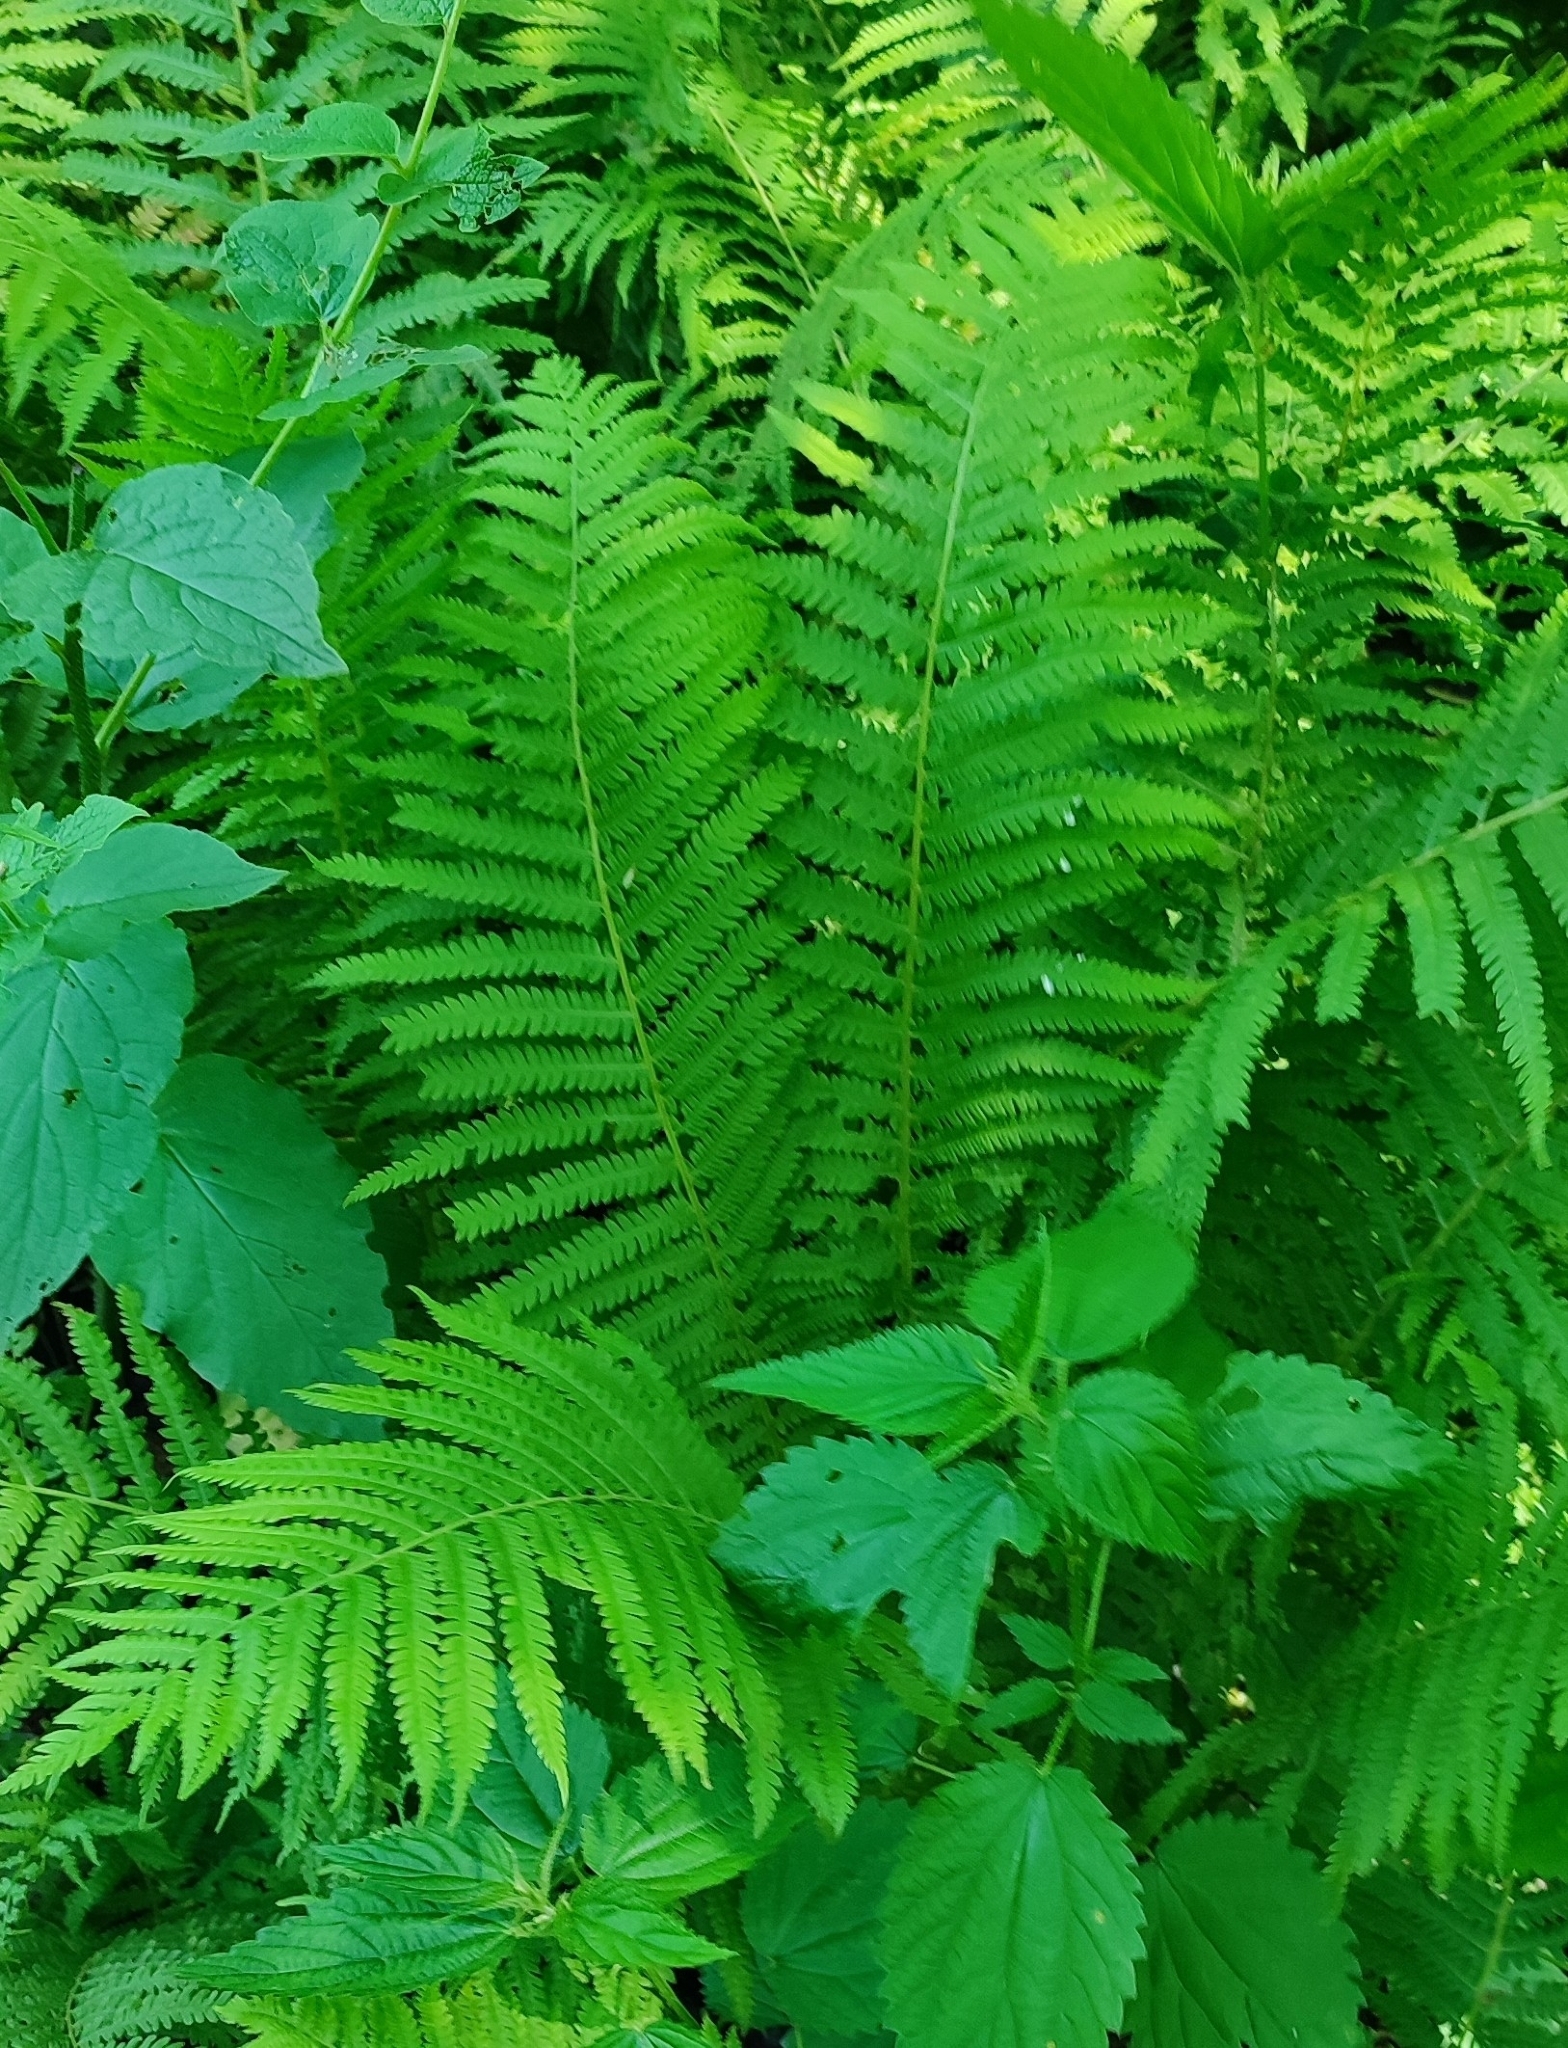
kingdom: Plantae
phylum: Tracheophyta
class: Polypodiopsida
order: Polypodiales
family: Onocleaceae
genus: Matteuccia
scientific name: Matteuccia struthiopteris
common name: Ostrich fern
